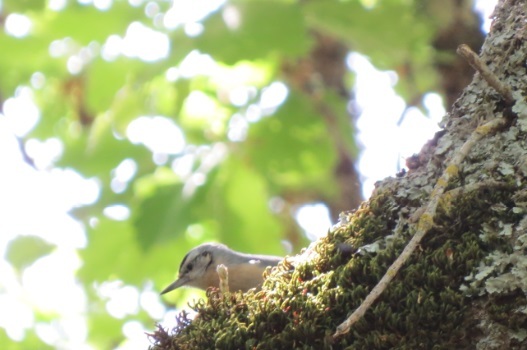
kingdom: Animalia
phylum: Chordata
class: Aves
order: Passeriformes
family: Sittidae
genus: Sitta
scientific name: Sitta ledanti
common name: Algerian nuthatch
